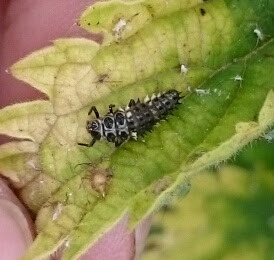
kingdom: Animalia
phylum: Arthropoda
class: Insecta
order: Coleoptera
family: Coccinellidae
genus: Calvia
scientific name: Calvia quatuordecimguttata
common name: Cream-spot ladybird
